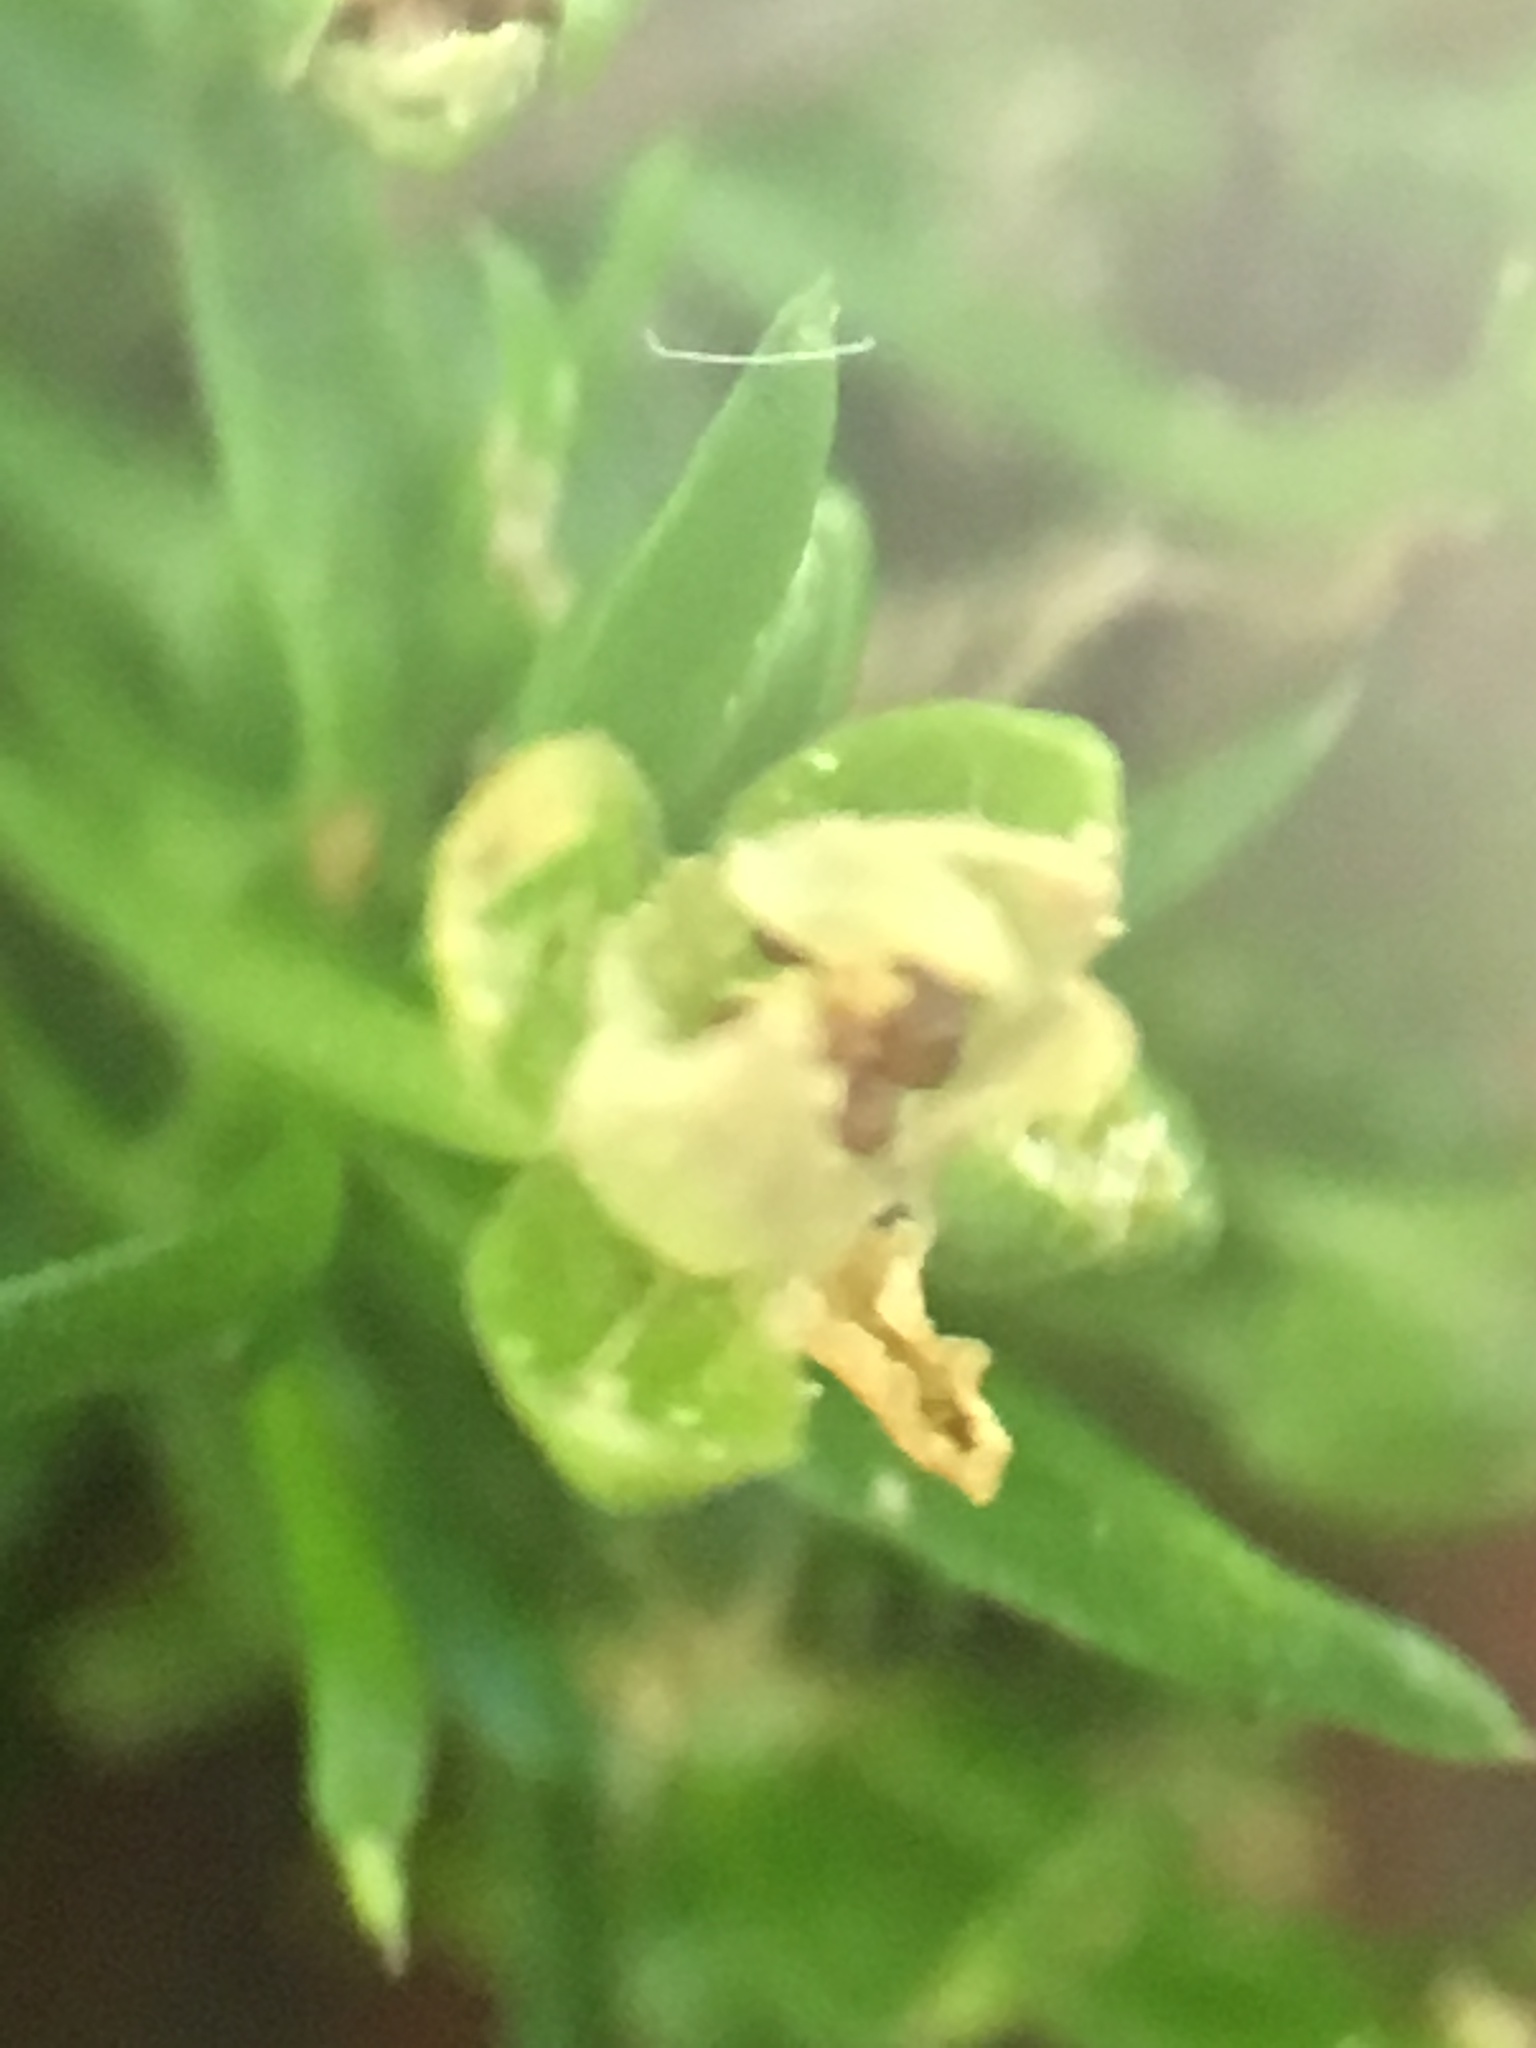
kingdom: Plantae
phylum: Tracheophyta
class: Magnoliopsida
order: Caryophyllales
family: Caryophyllaceae
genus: Sagina
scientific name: Sagina procumbens
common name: Procumbent pearlwort
